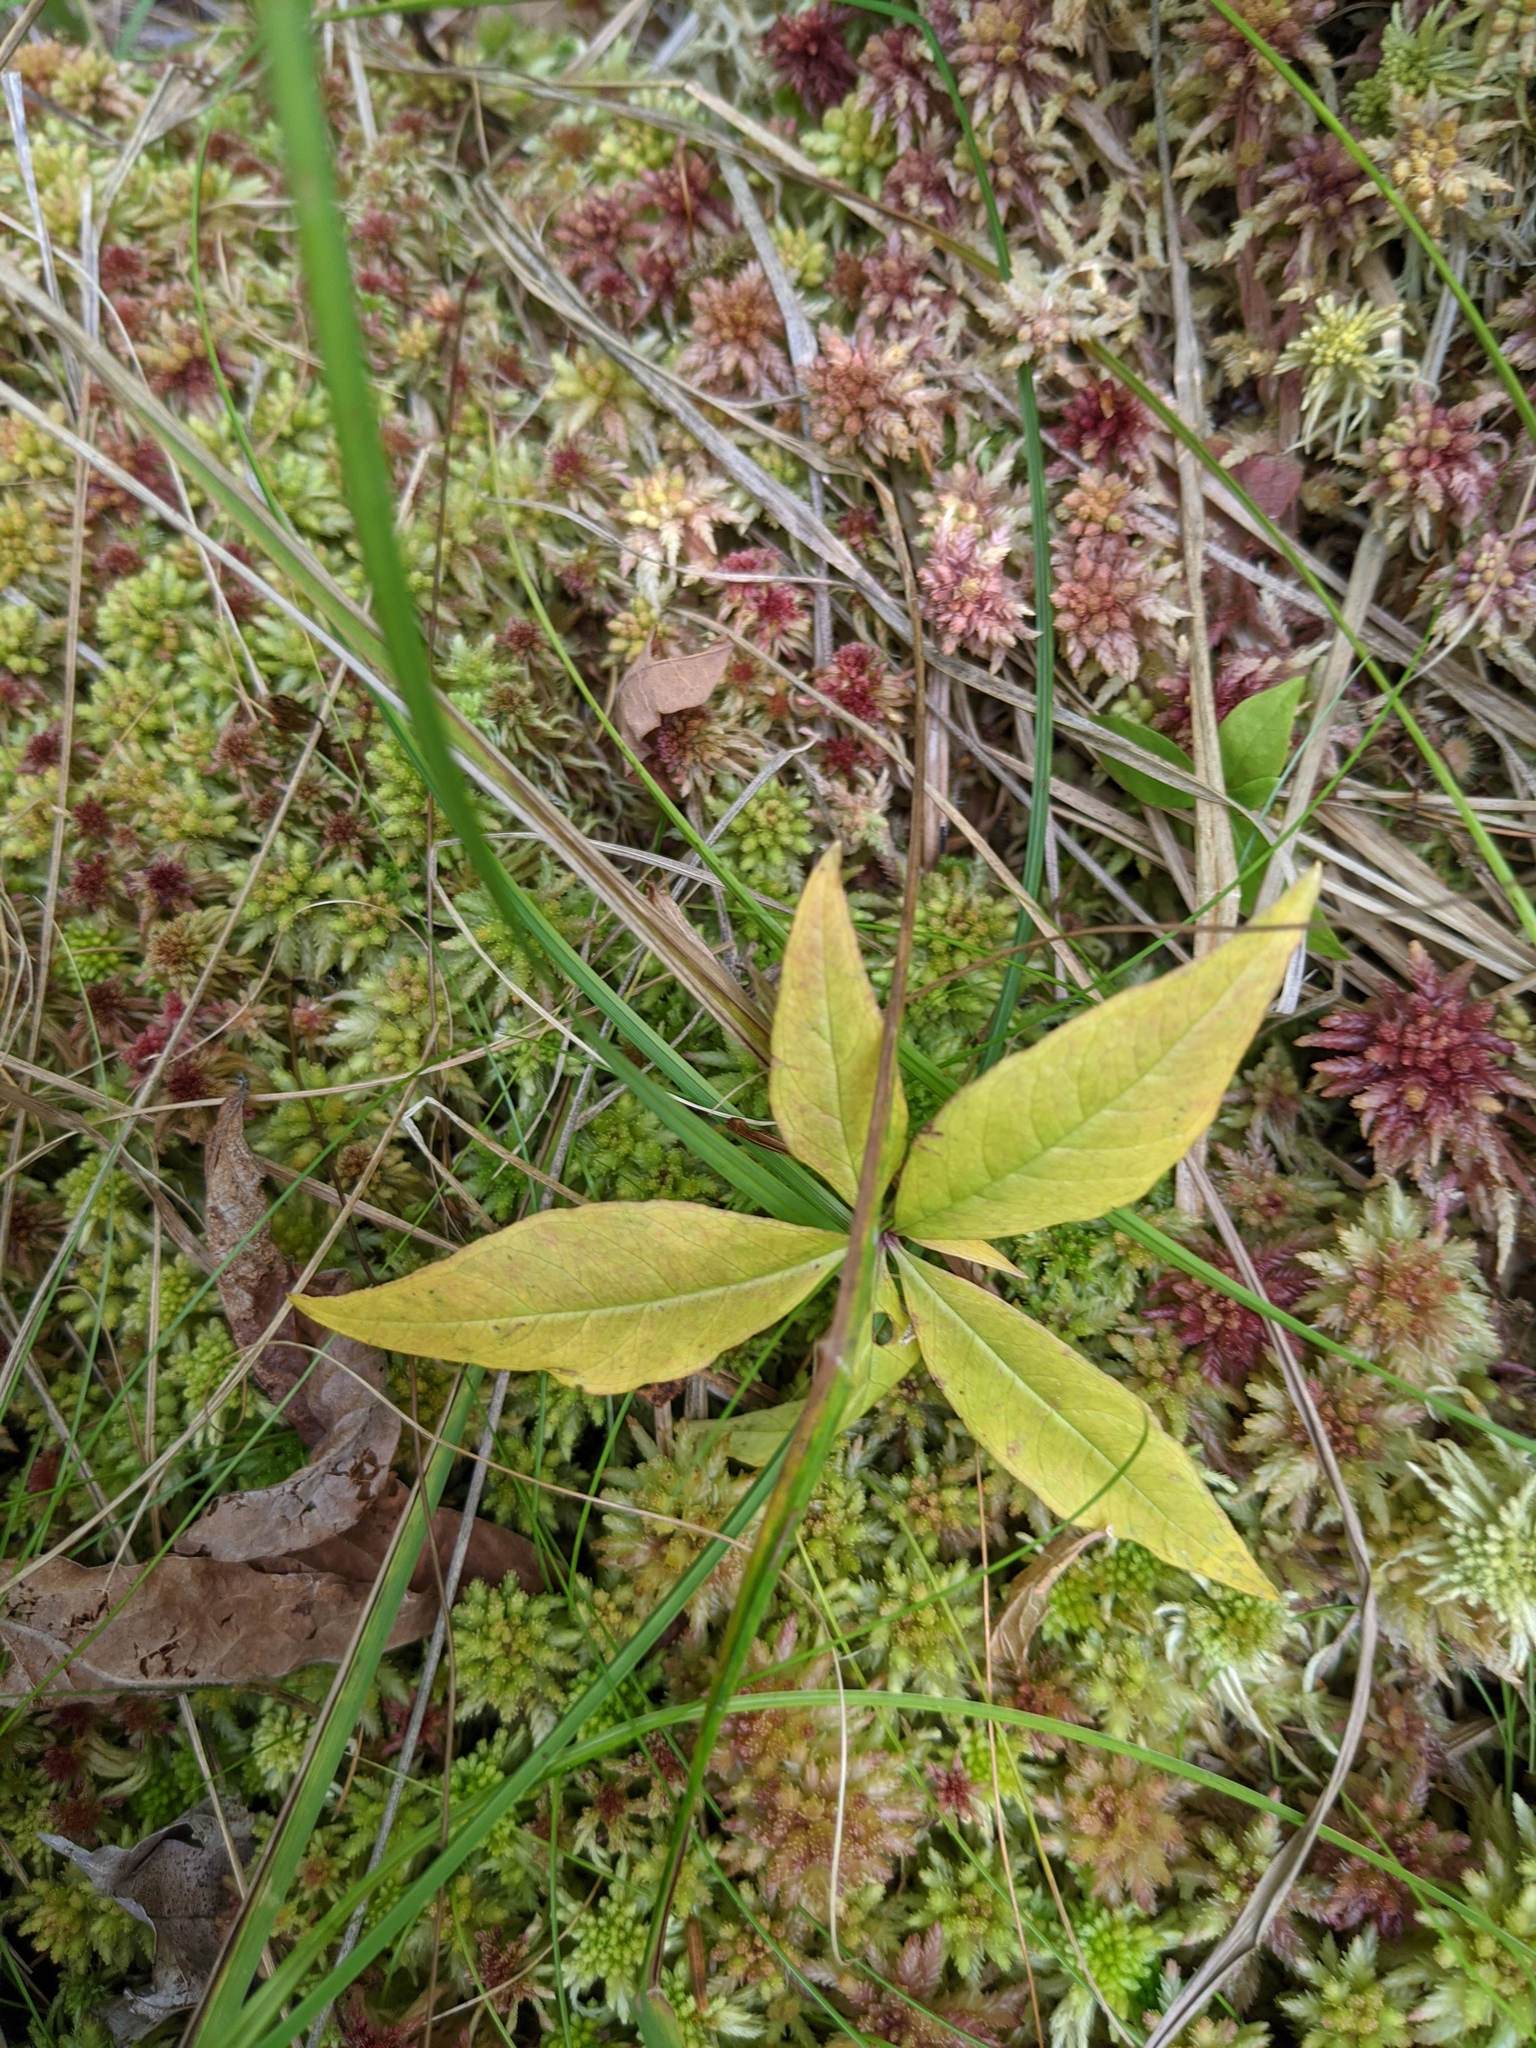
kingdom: Plantae
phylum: Tracheophyta
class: Magnoliopsida
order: Ericales
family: Primulaceae
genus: Lysimachia
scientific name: Lysimachia borealis
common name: American starflower
